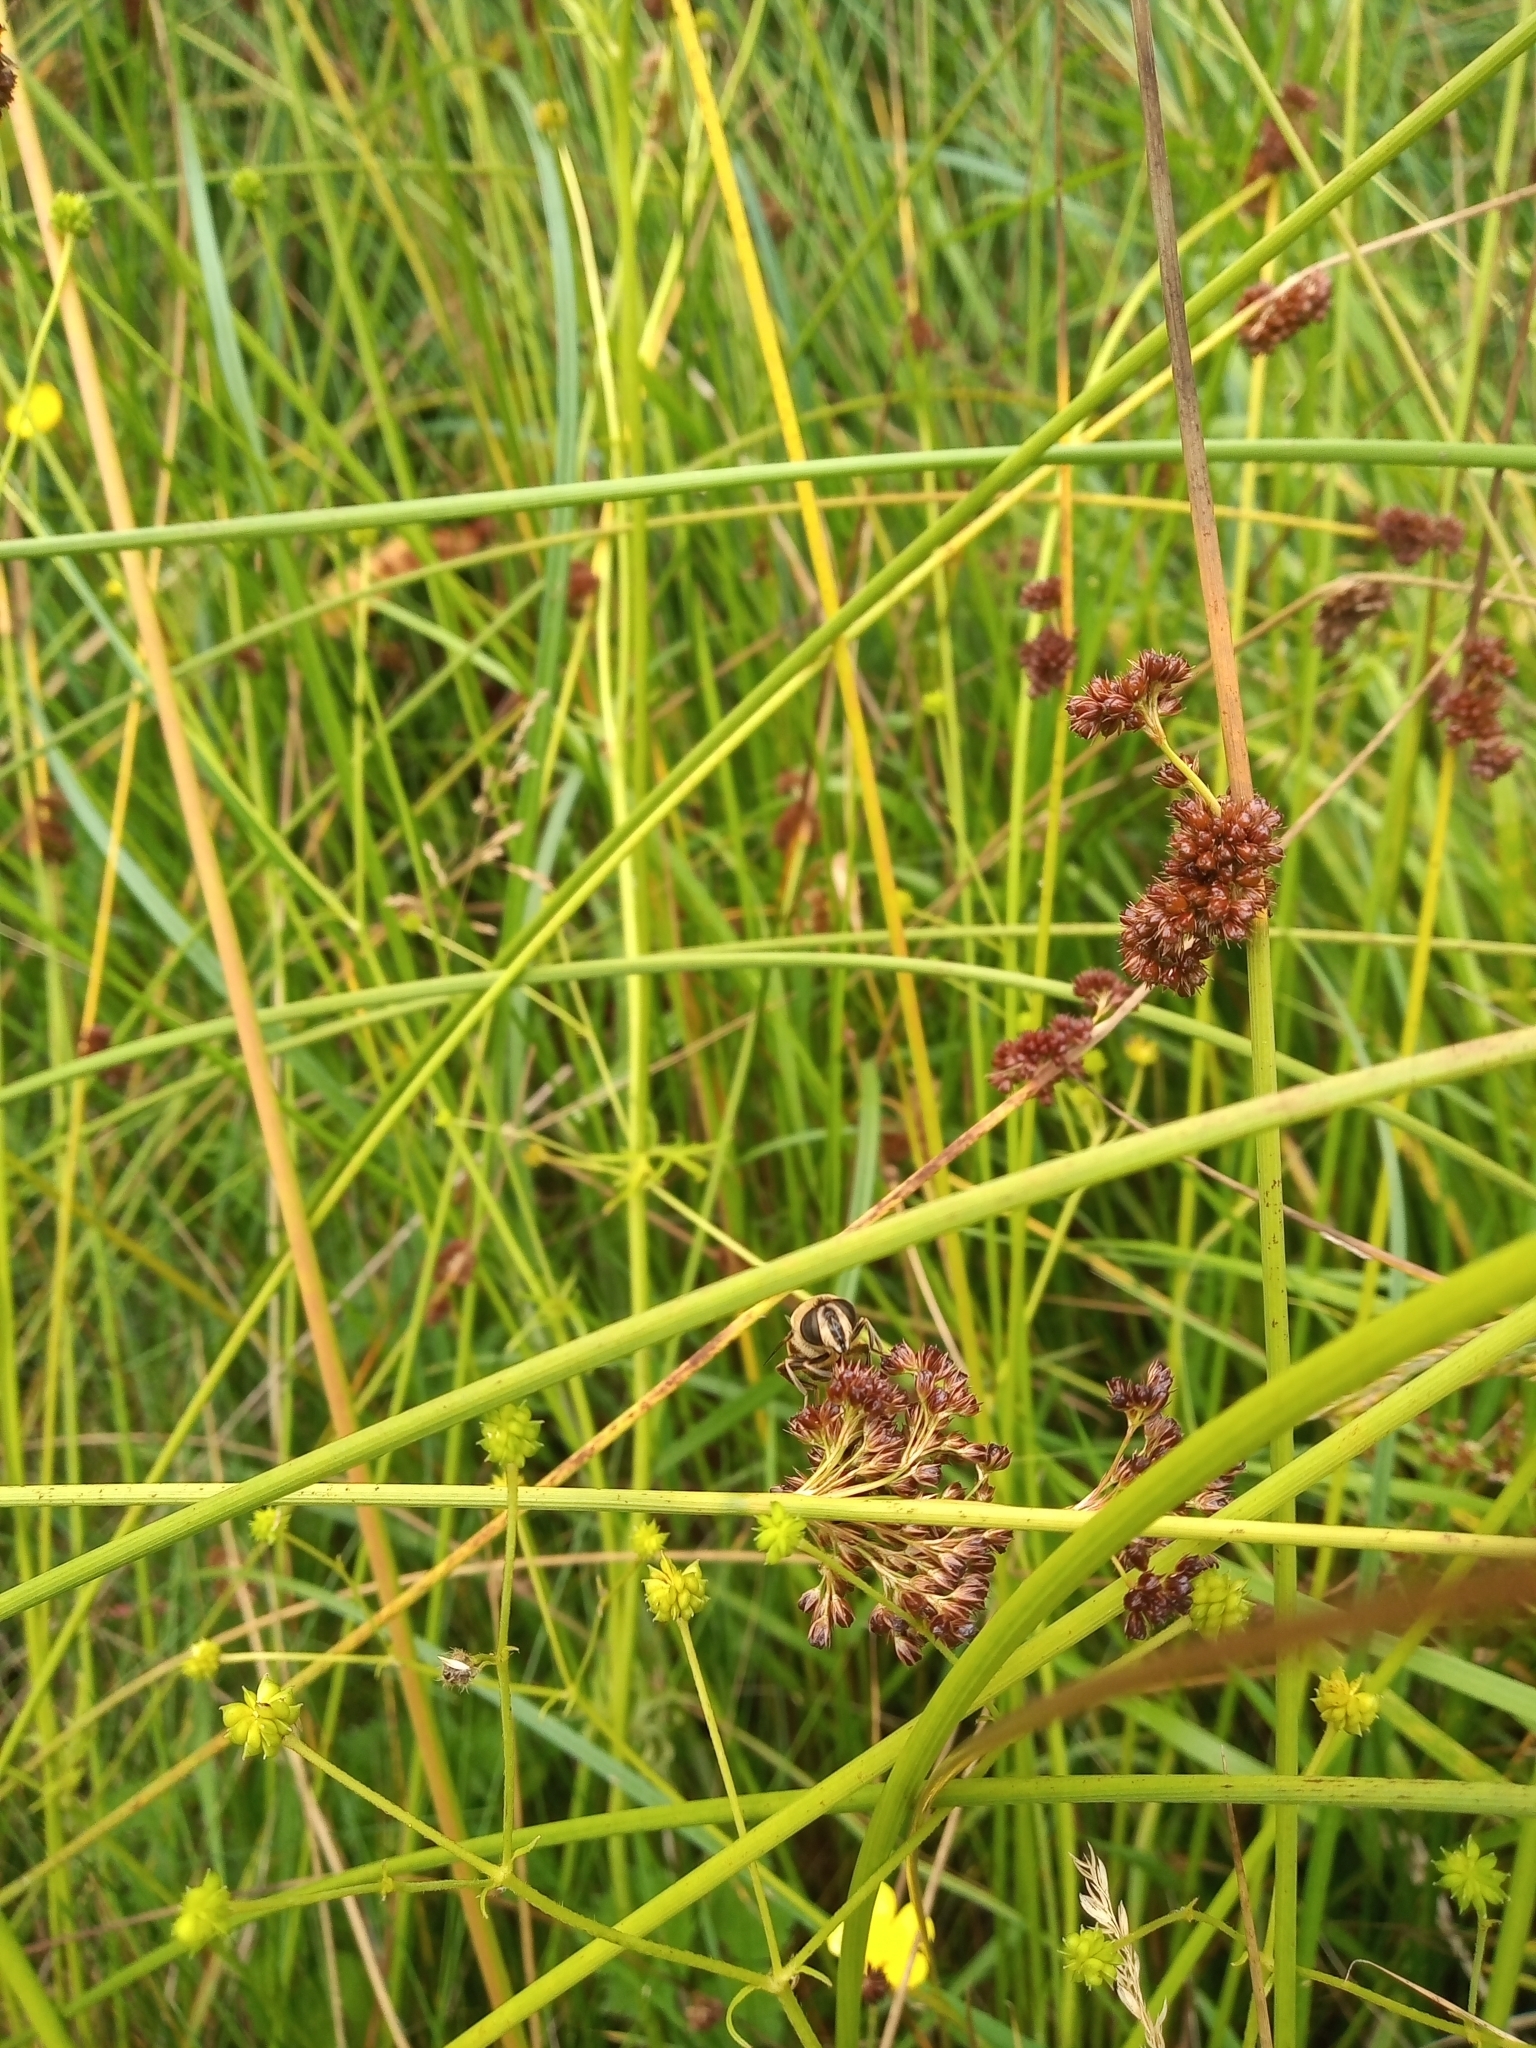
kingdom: Plantae
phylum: Tracheophyta
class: Liliopsida
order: Poales
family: Juncaceae
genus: Juncus
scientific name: Juncus conglomeratus
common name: Compact rush
